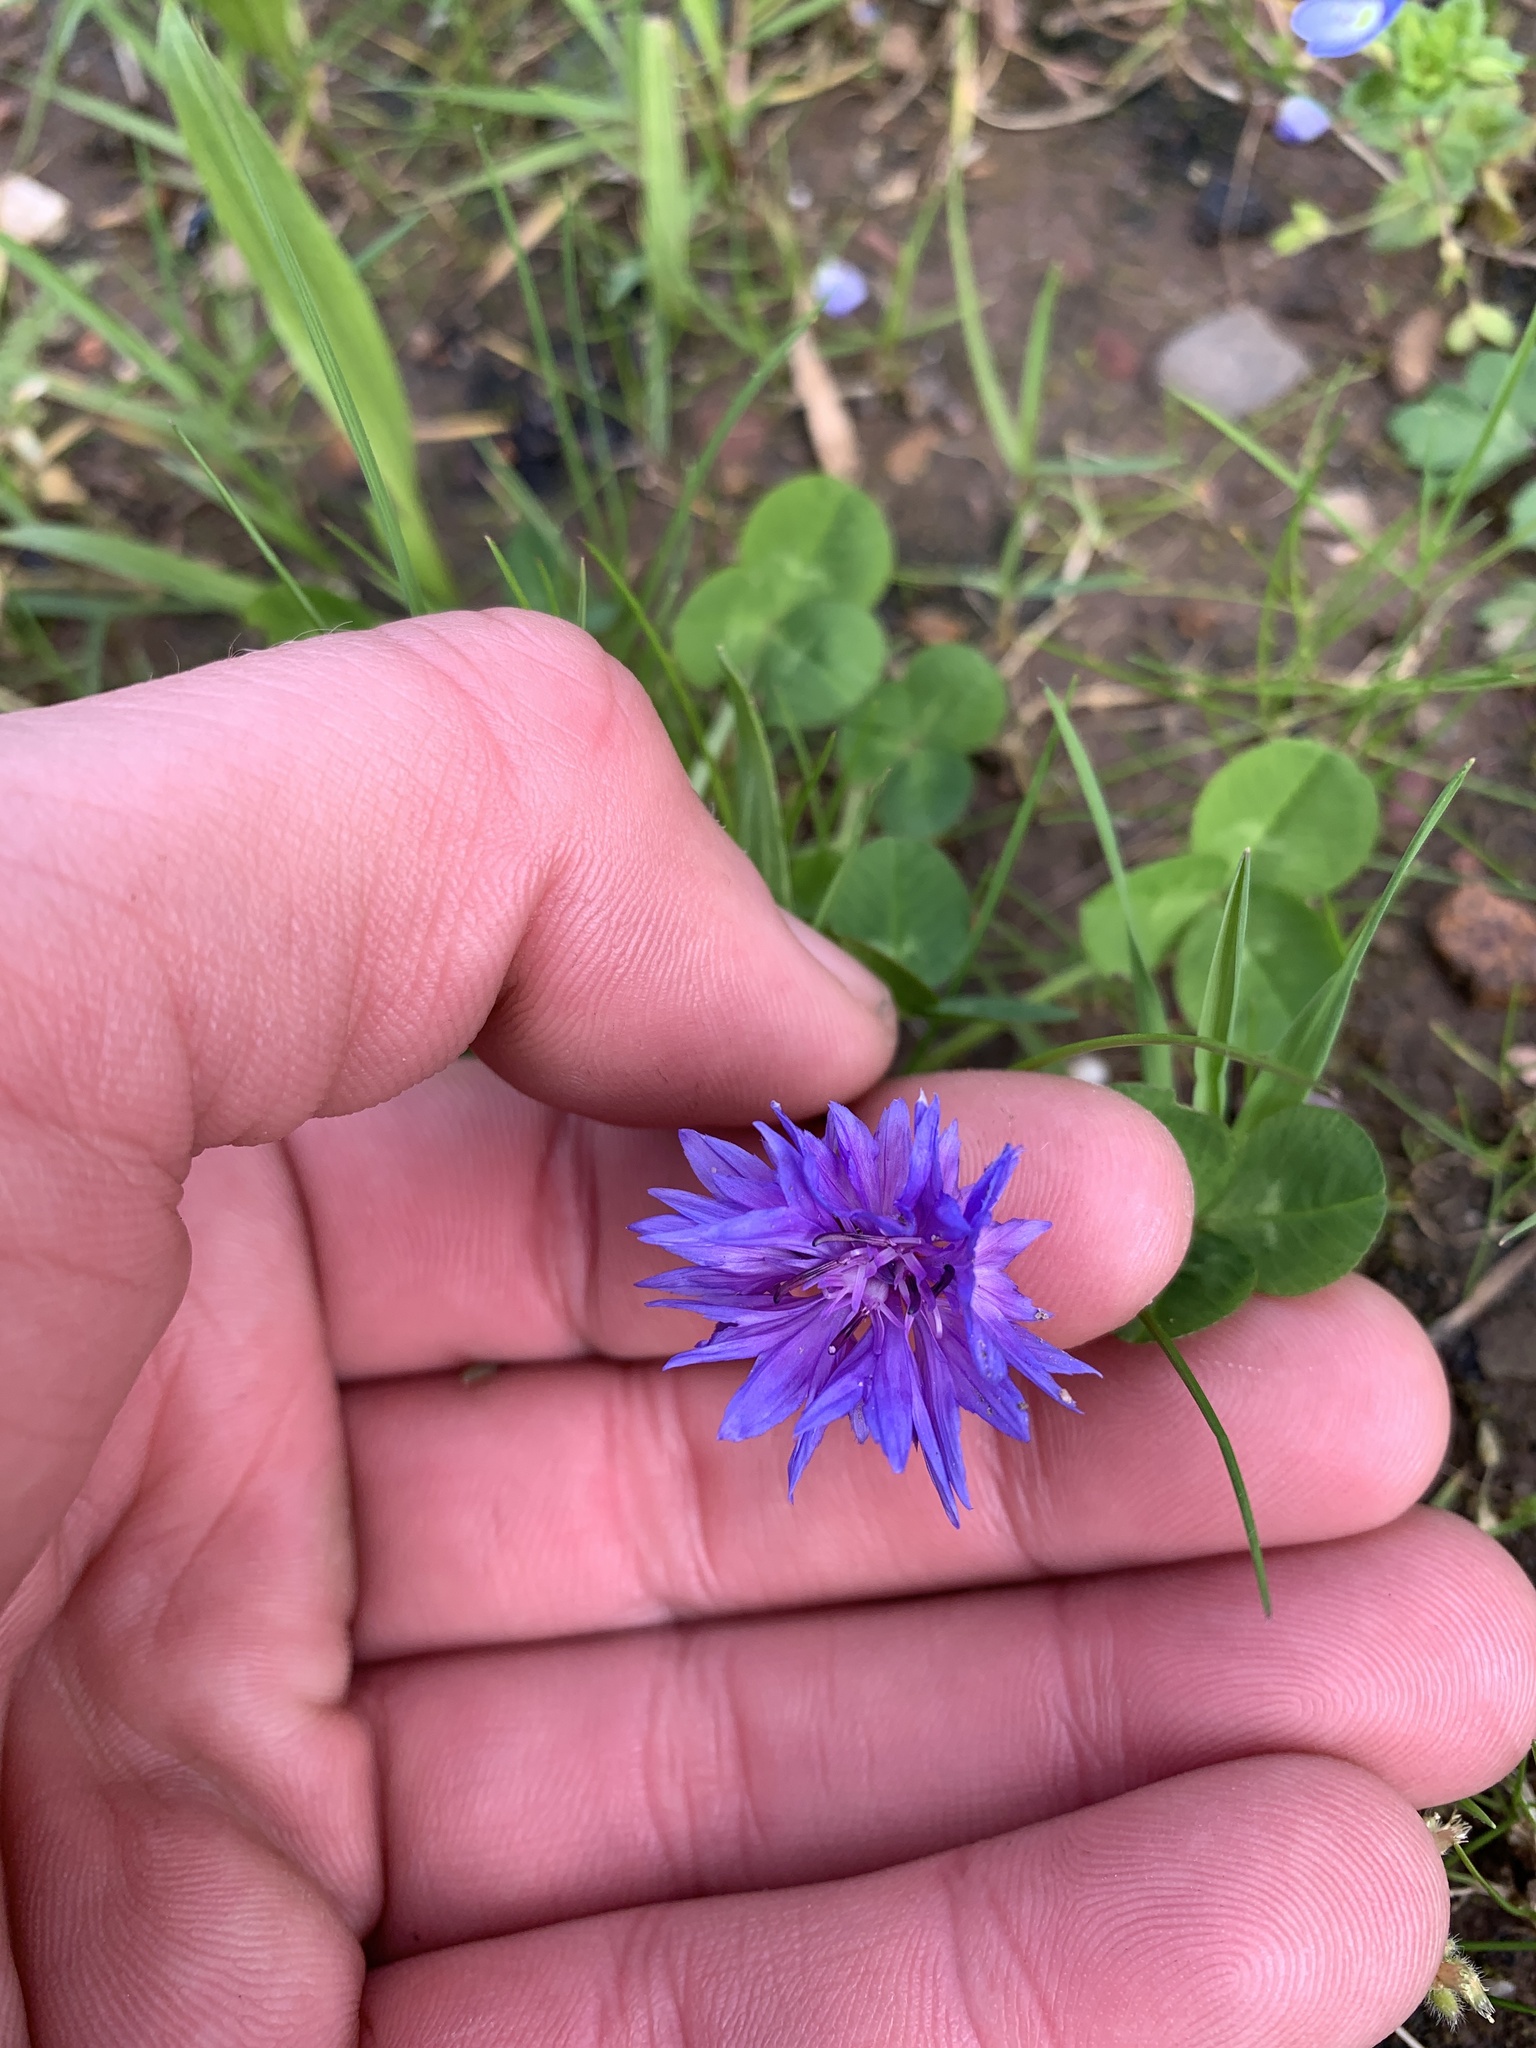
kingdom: Plantae
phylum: Tracheophyta
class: Magnoliopsida
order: Asterales
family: Asteraceae
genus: Centaurea
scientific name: Centaurea cyanus
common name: Cornflower
